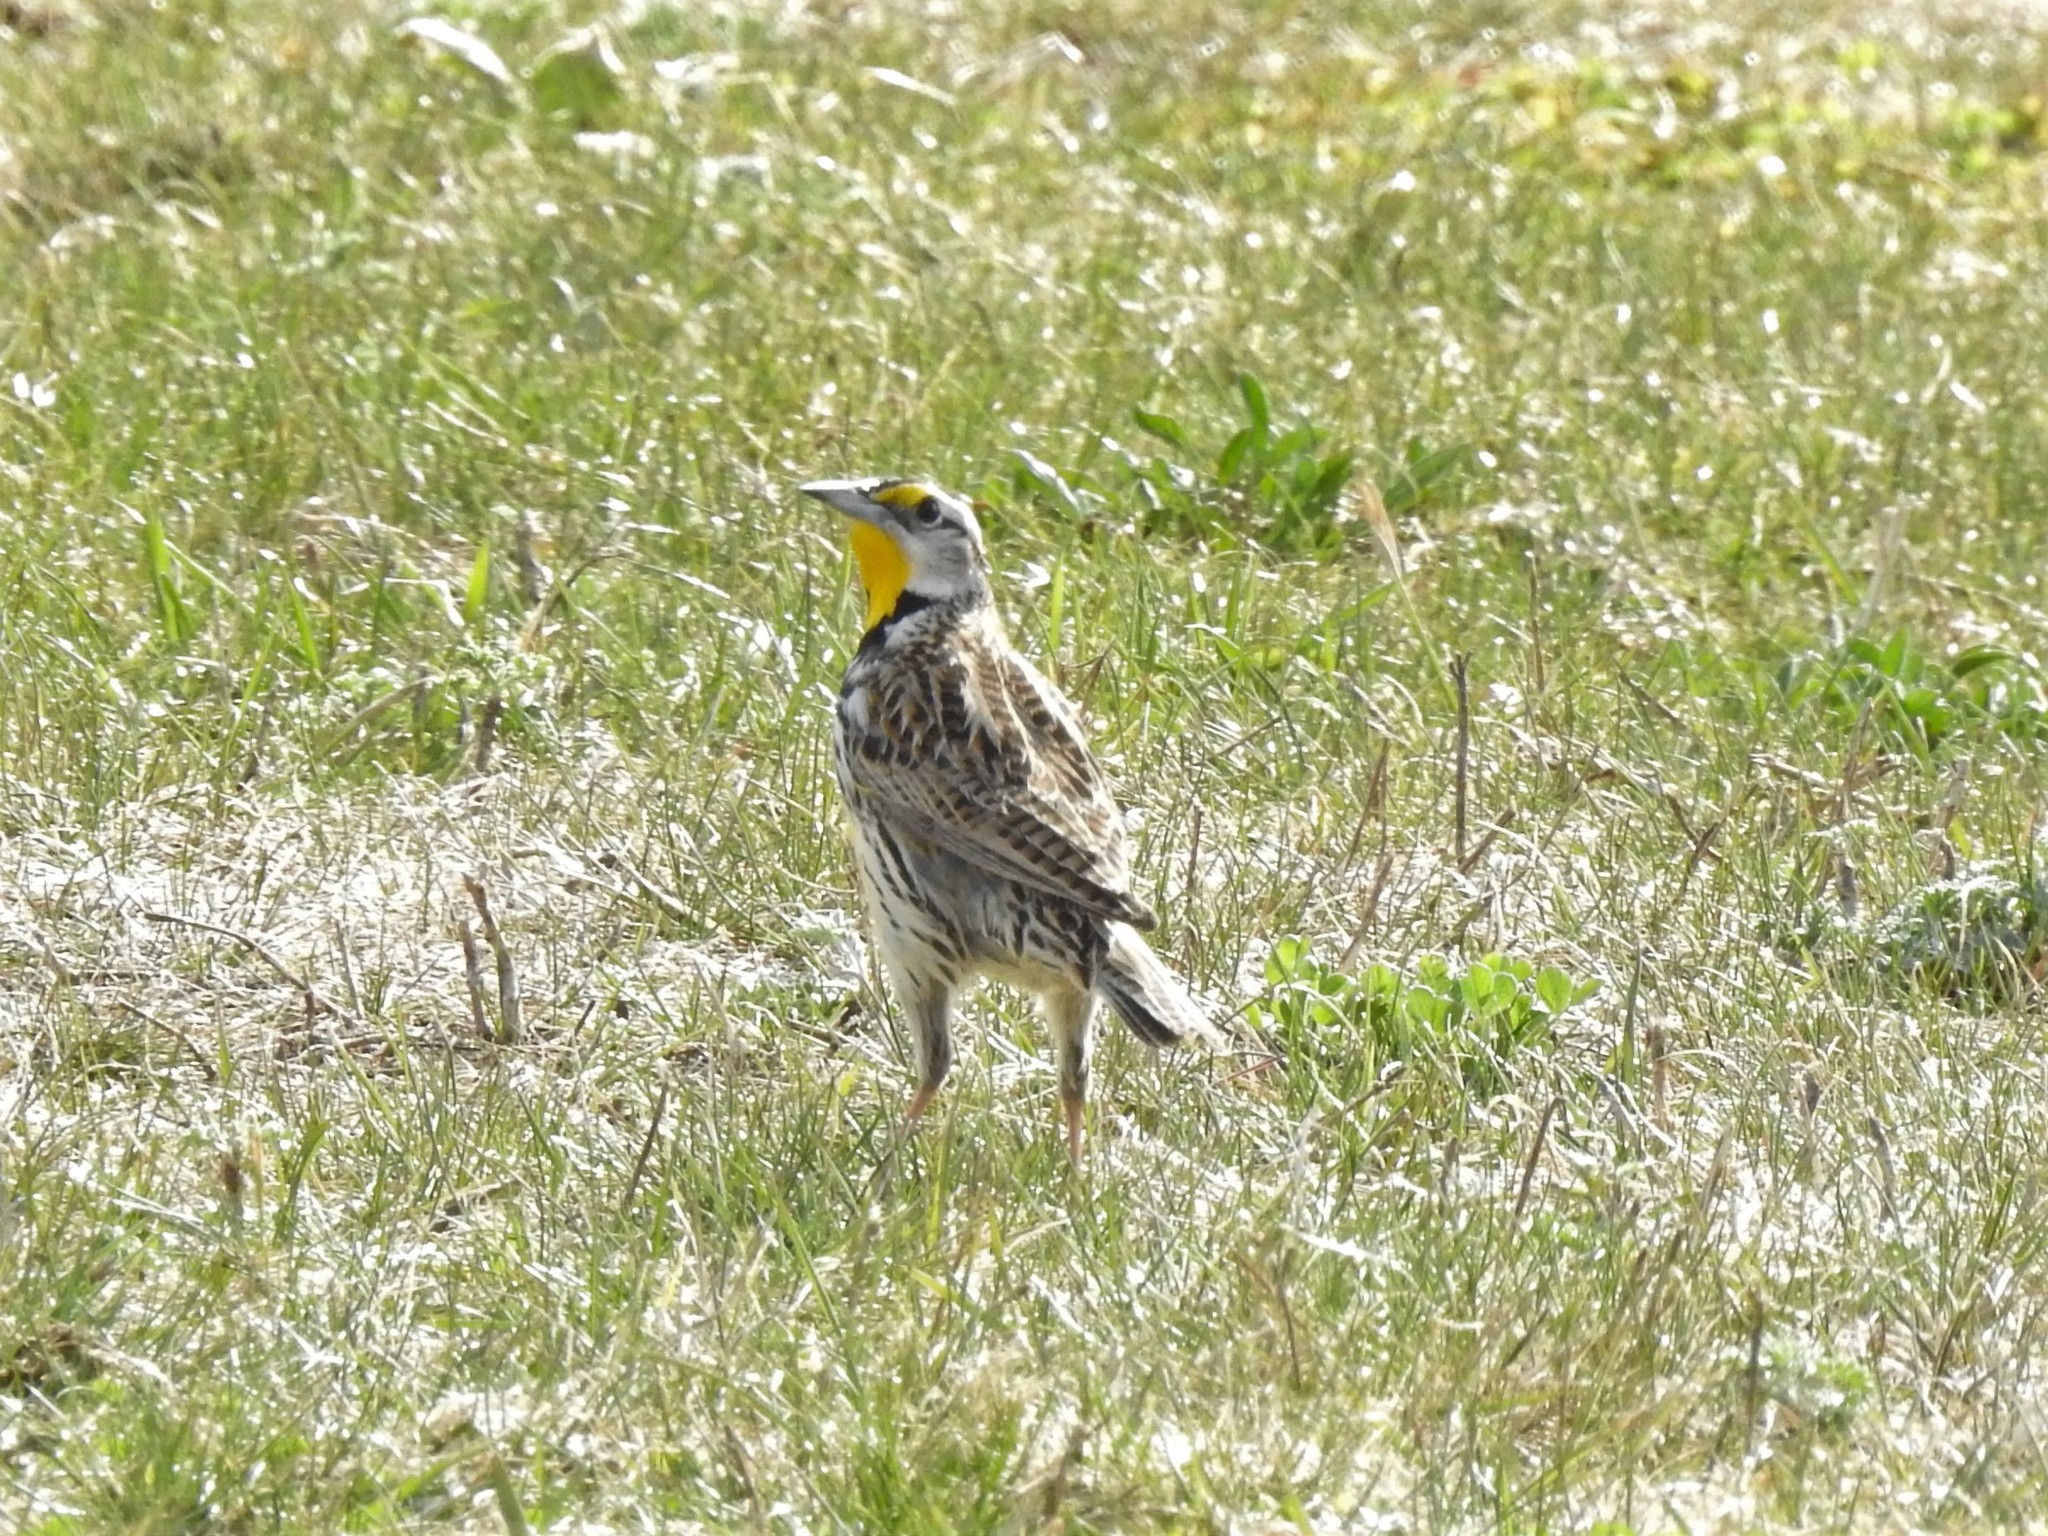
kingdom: Animalia
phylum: Chordata
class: Aves
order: Passeriformes
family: Icteridae
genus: Sturnella
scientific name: Sturnella magna
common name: Eastern meadowlark
